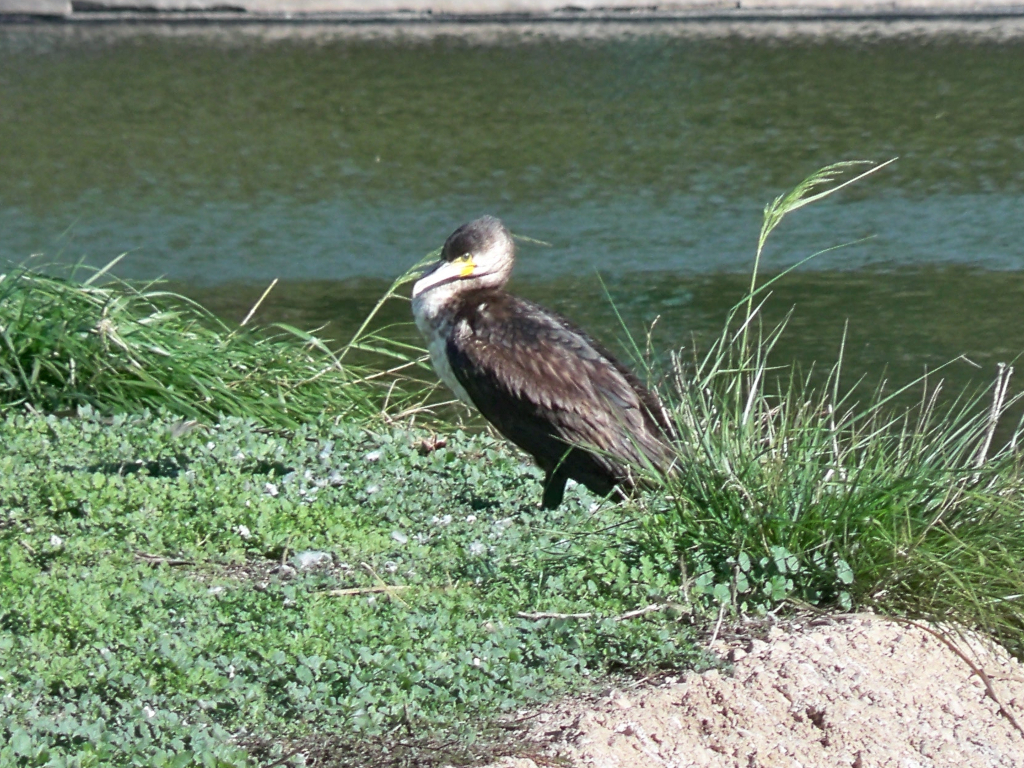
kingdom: Animalia
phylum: Chordata
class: Aves
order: Suliformes
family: Phalacrocoracidae
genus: Phalacrocorax
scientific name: Phalacrocorax carbo
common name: Great cormorant
